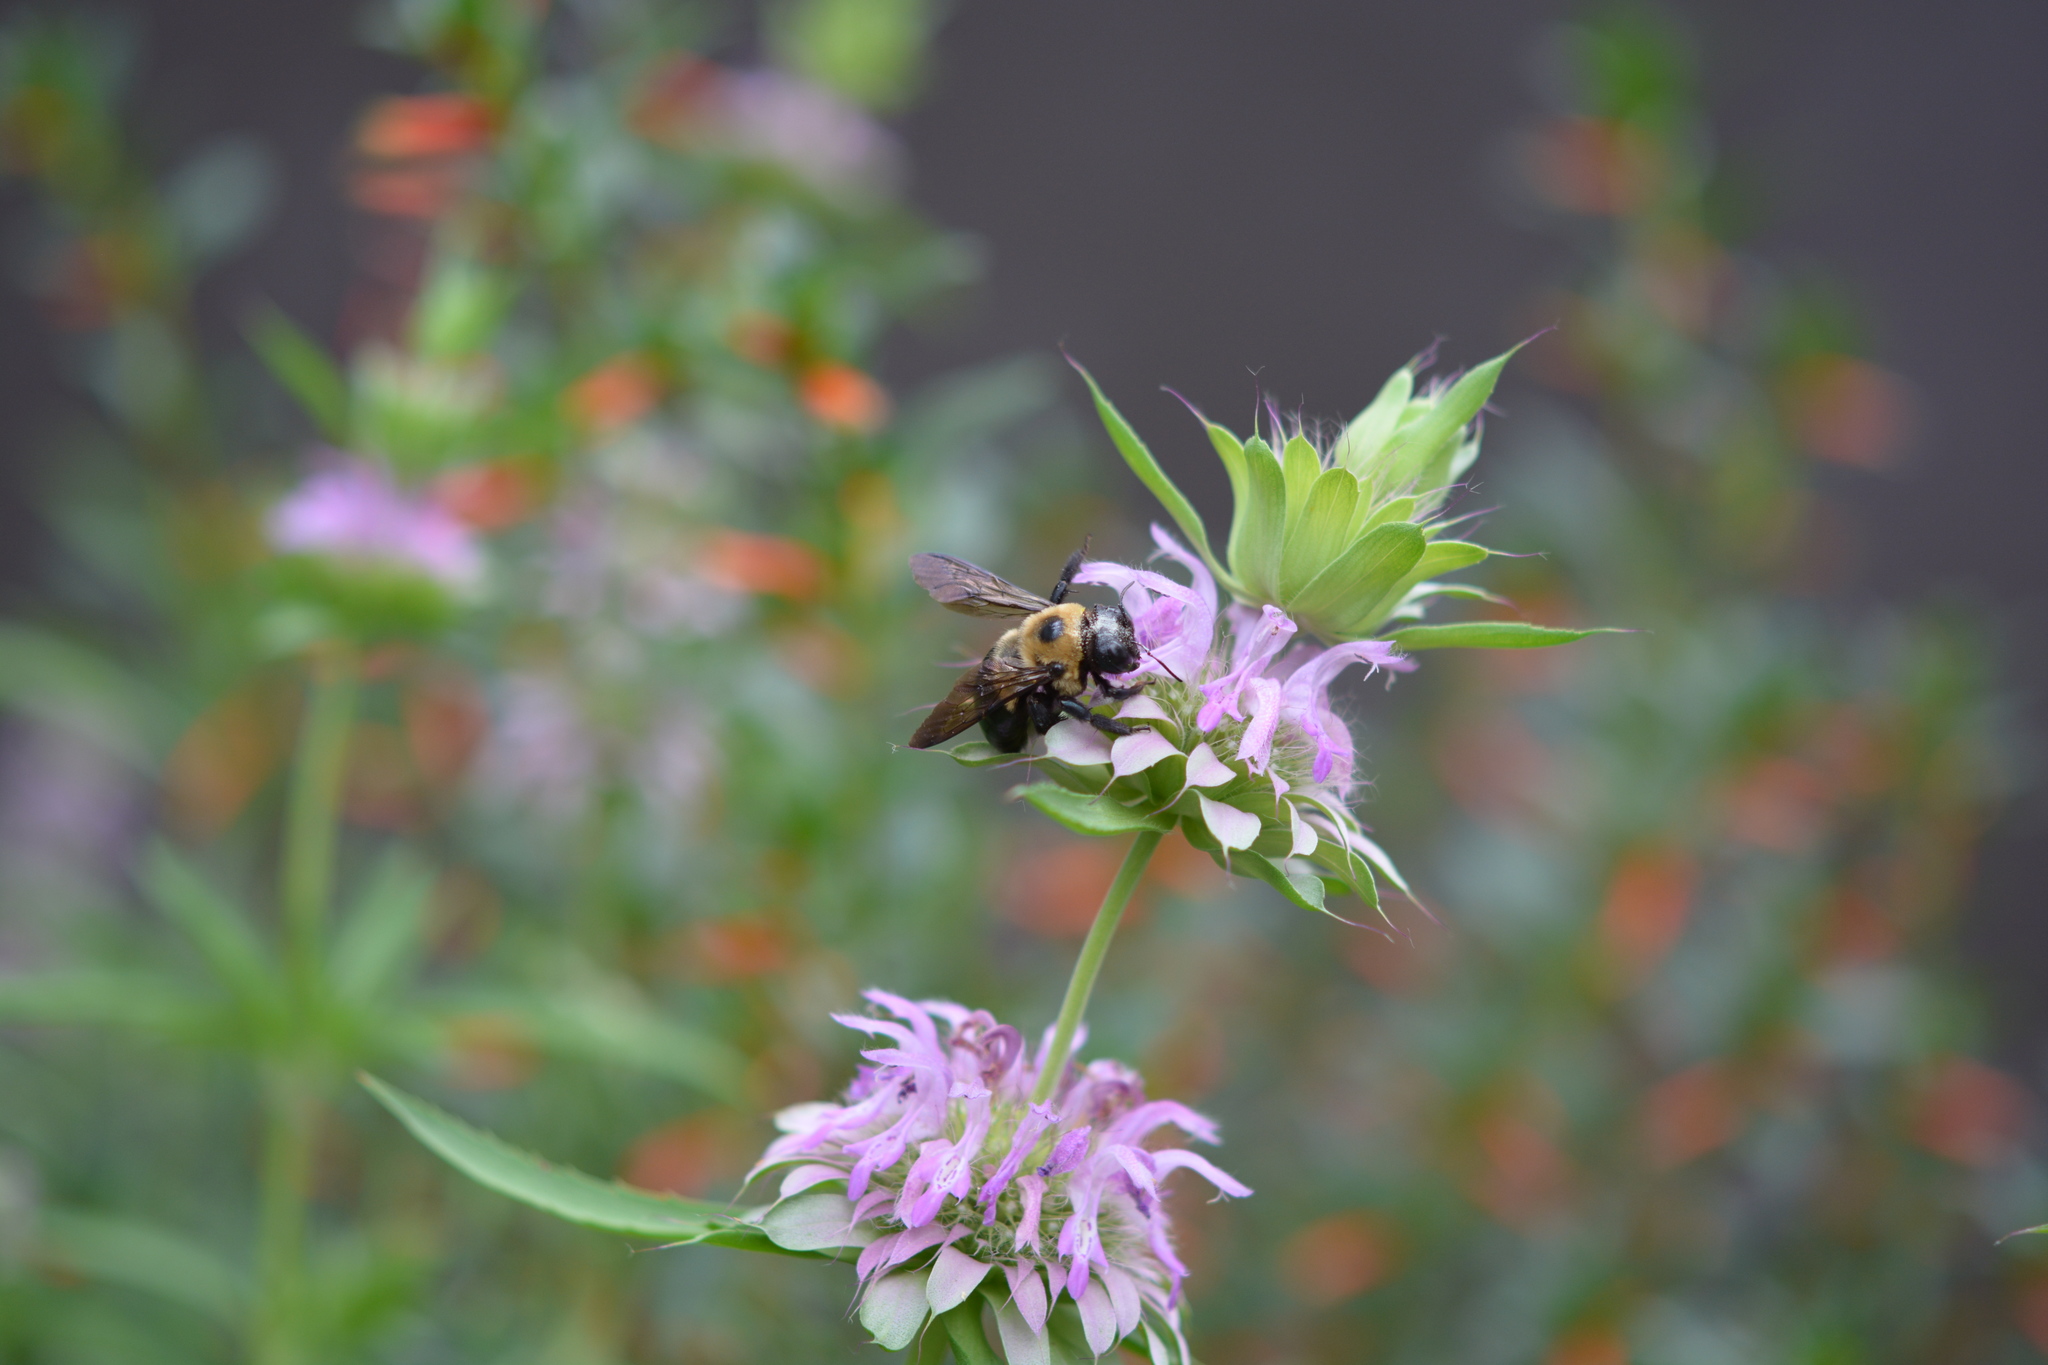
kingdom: Animalia
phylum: Arthropoda
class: Insecta
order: Hymenoptera
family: Apidae
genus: Xylocopa
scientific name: Xylocopa virginica
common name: Carpenter bee
